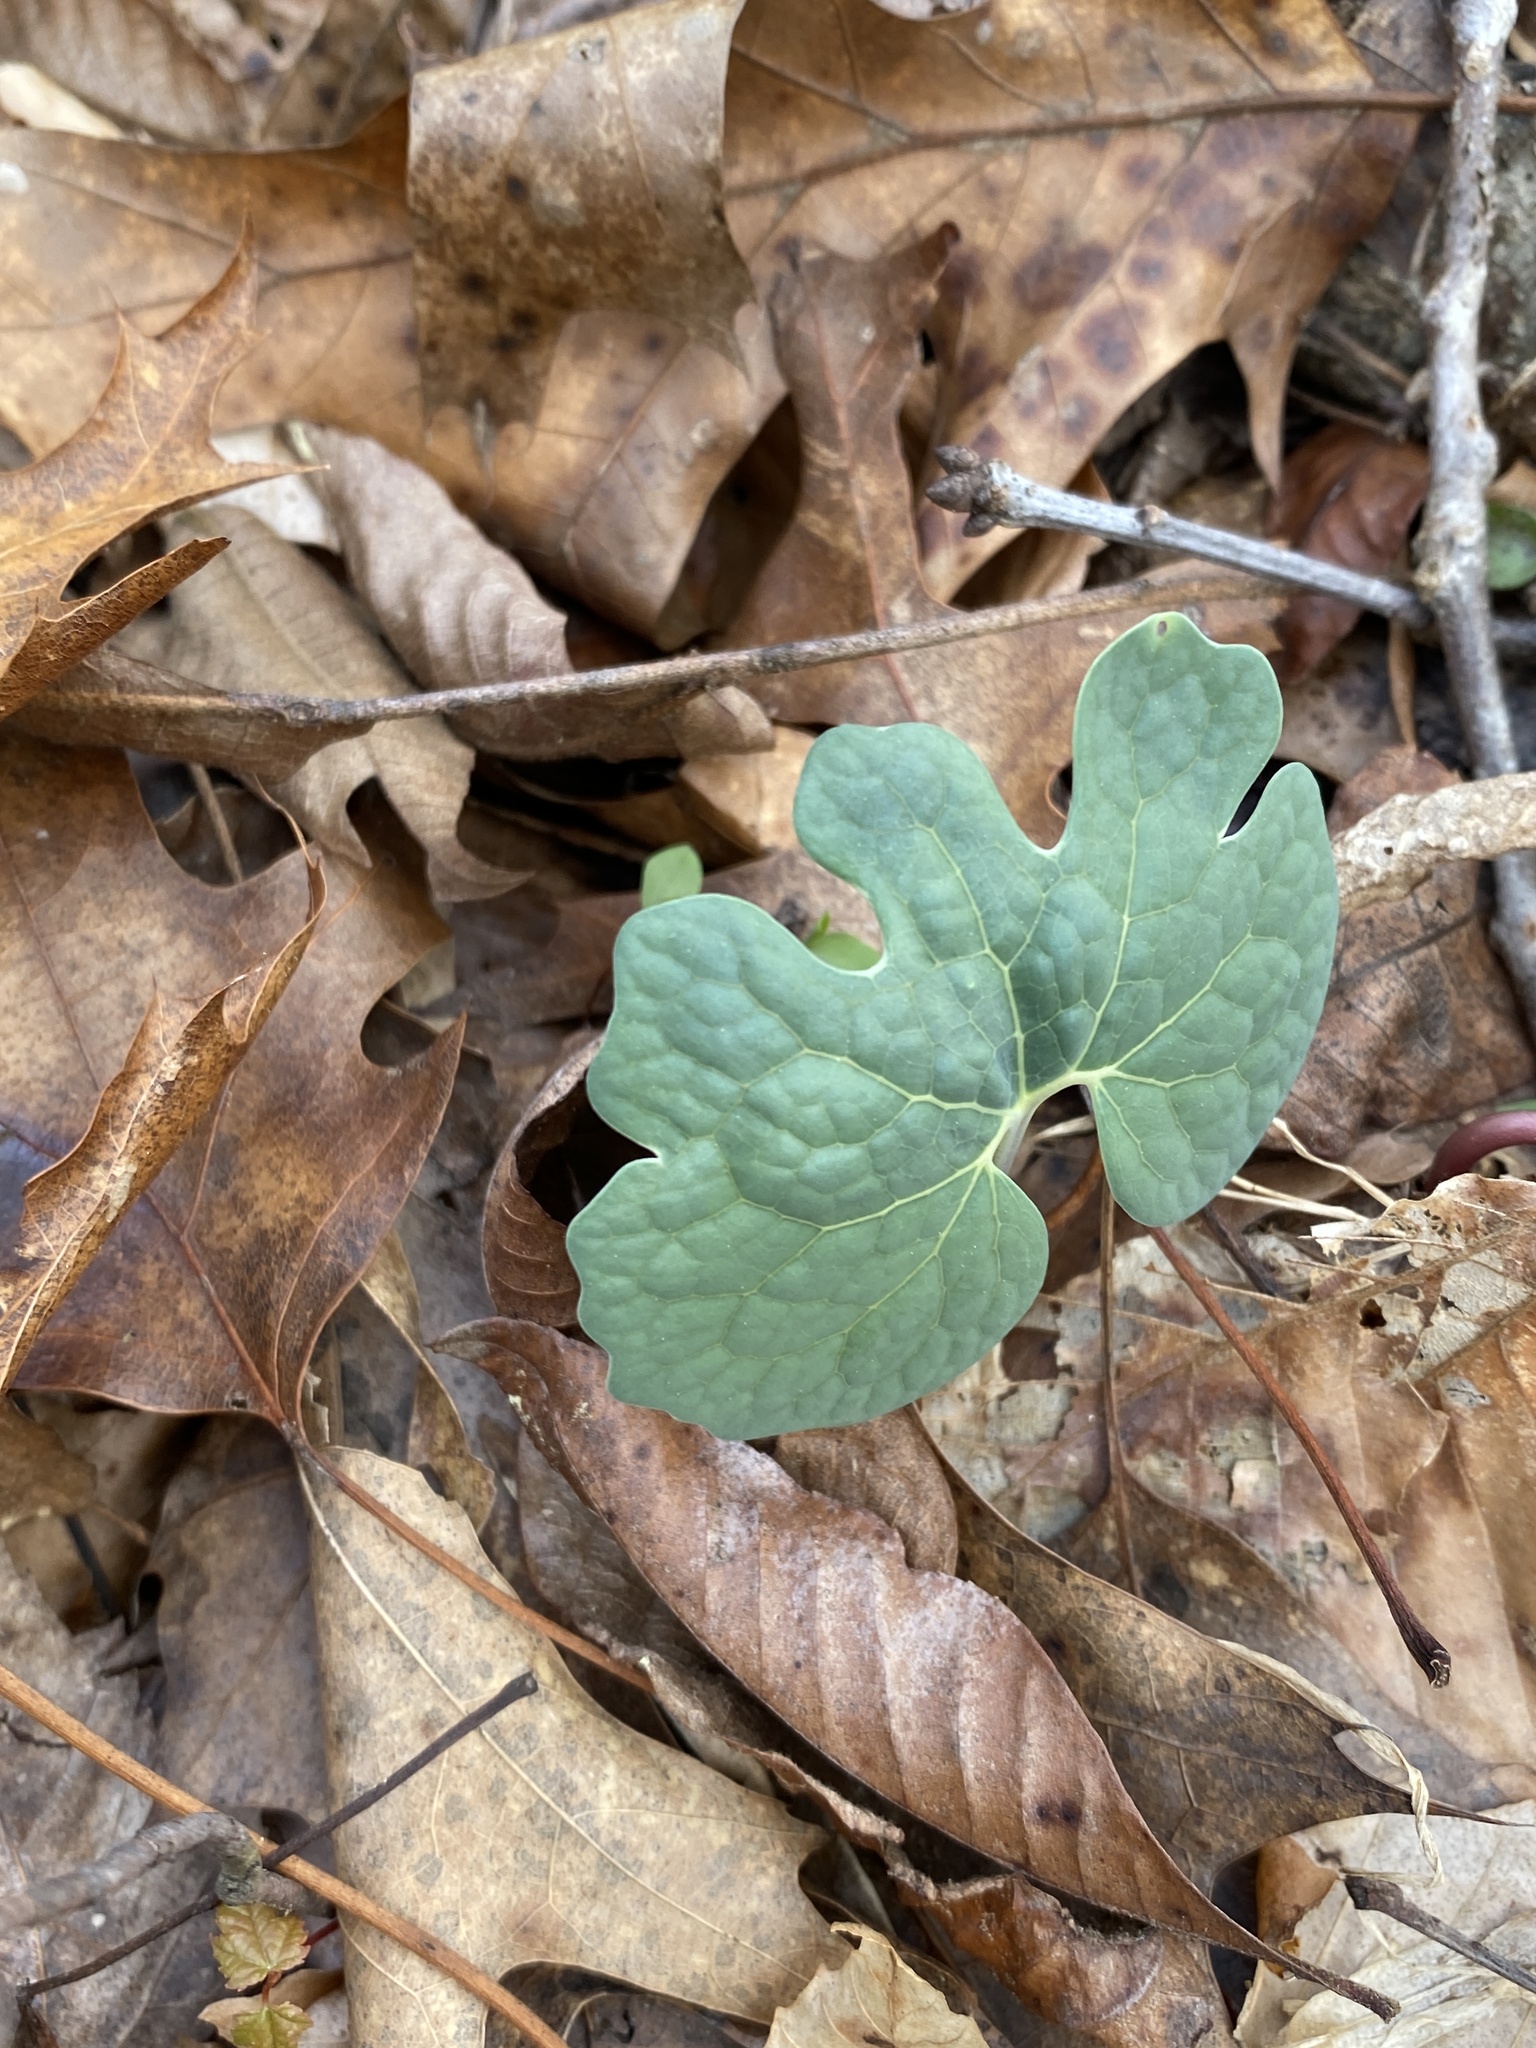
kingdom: Plantae
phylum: Tracheophyta
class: Magnoliopsida
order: Ranunculales
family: Papaveraceae
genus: Sanguinaria
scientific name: Sanguinaria canadensis
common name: Bloodroot
